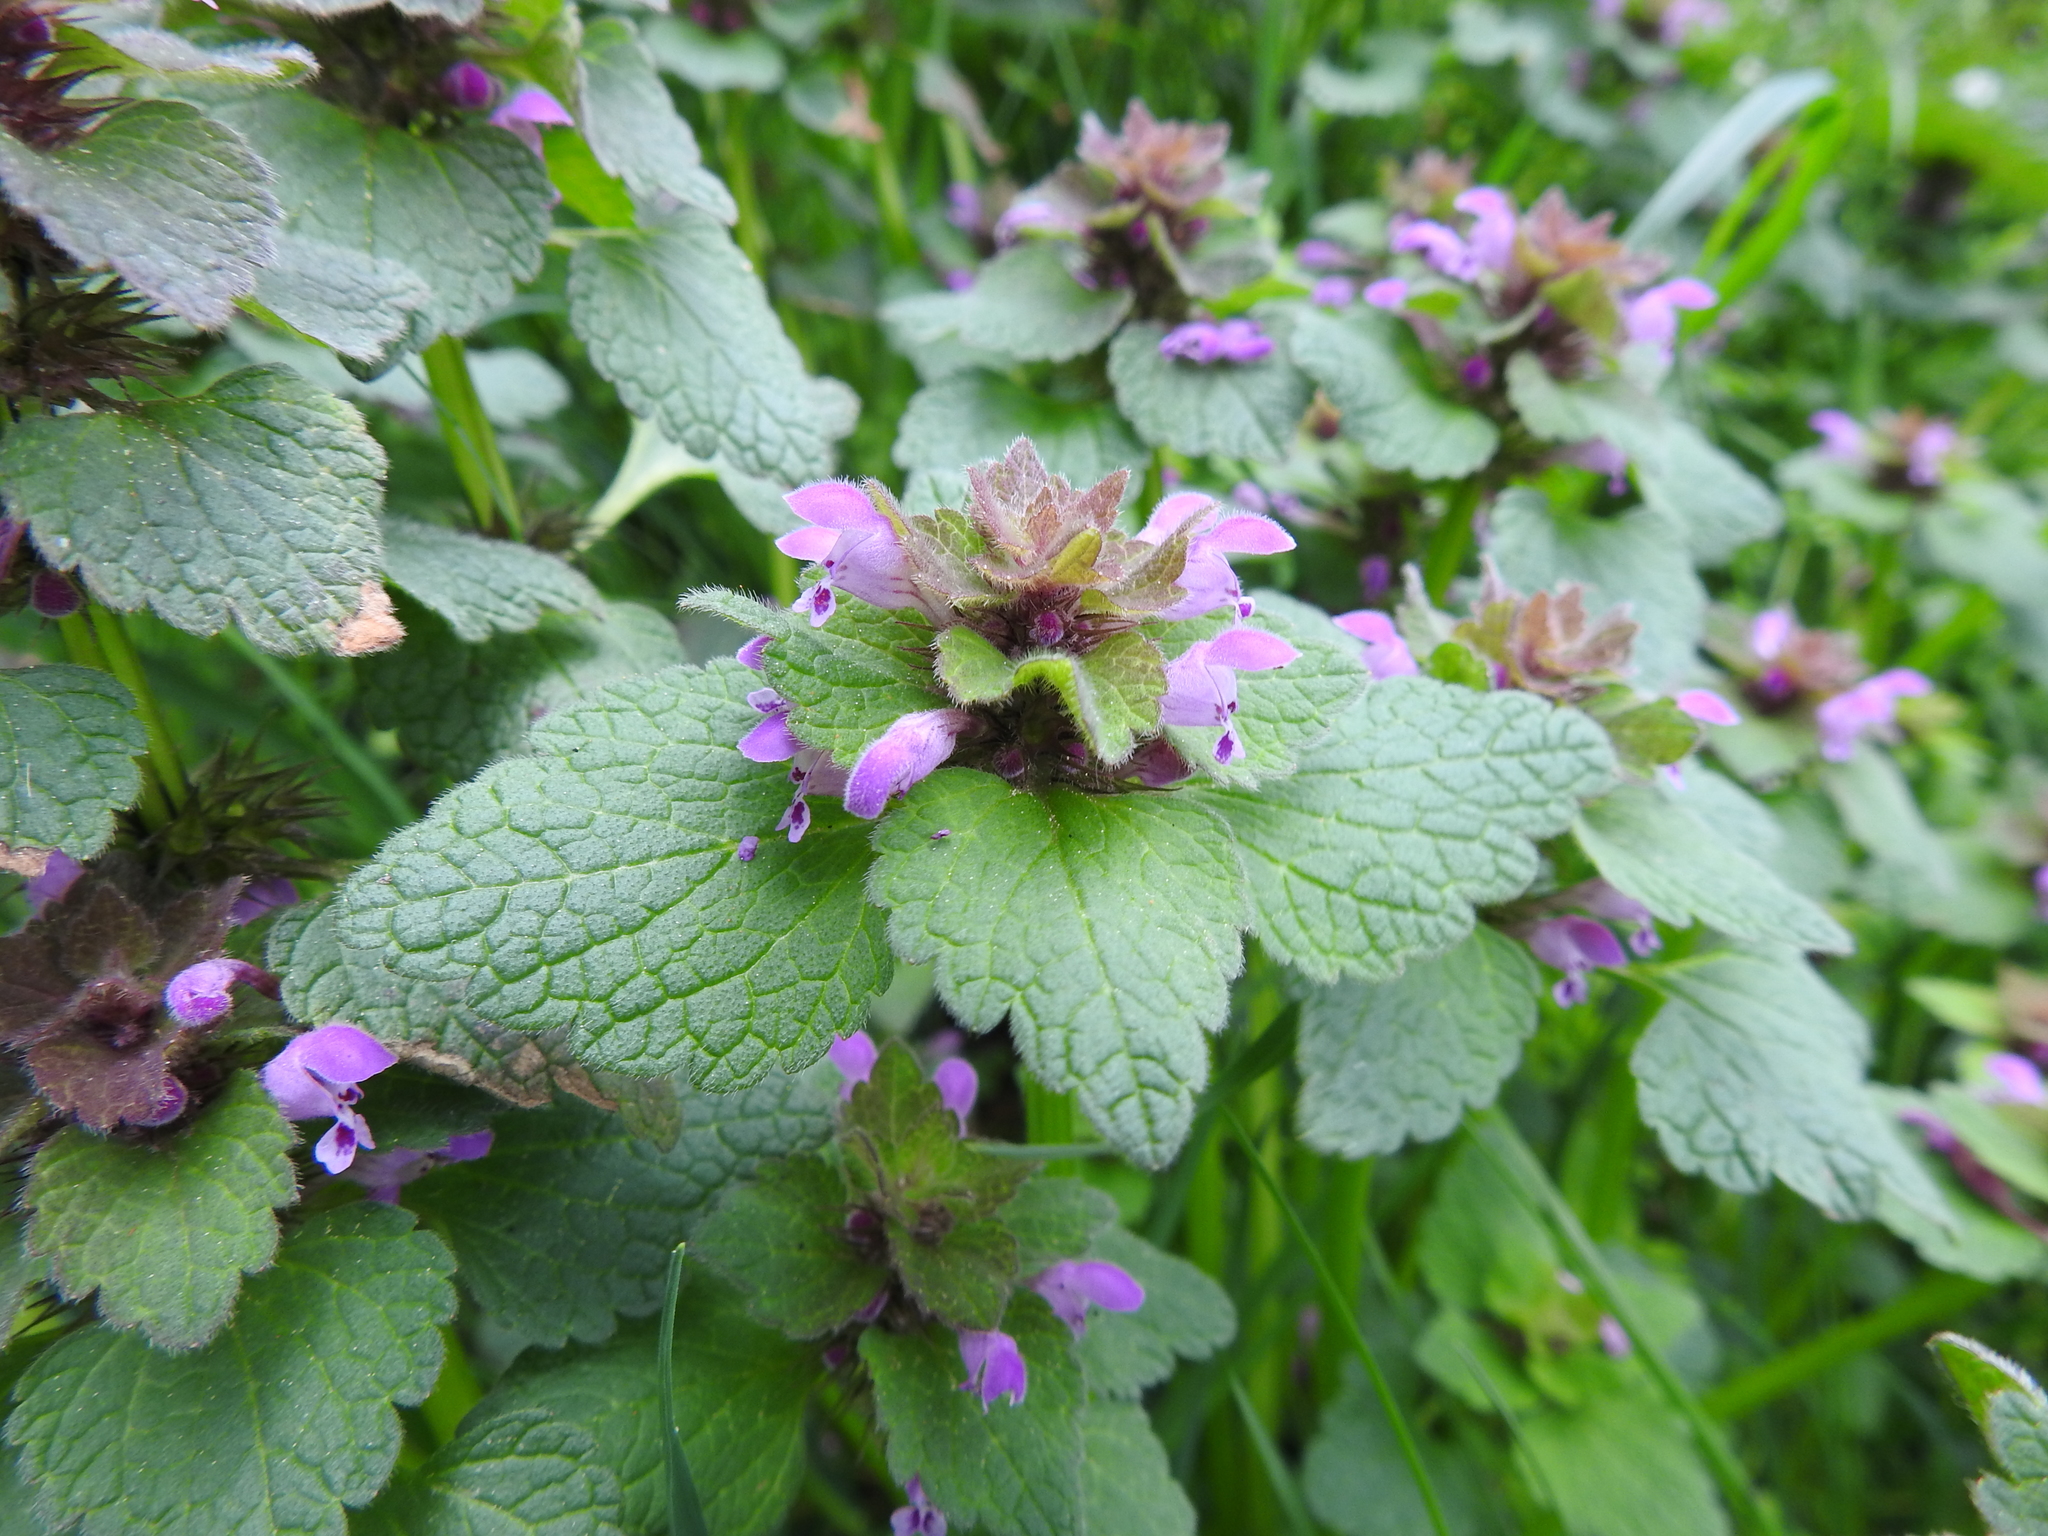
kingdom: Plantae
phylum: Tracheophyta
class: Magnoliopsida
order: Lamiales
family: Lamiaceae
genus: Lamium
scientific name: Lamium purpureum
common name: Red dead-nettle
